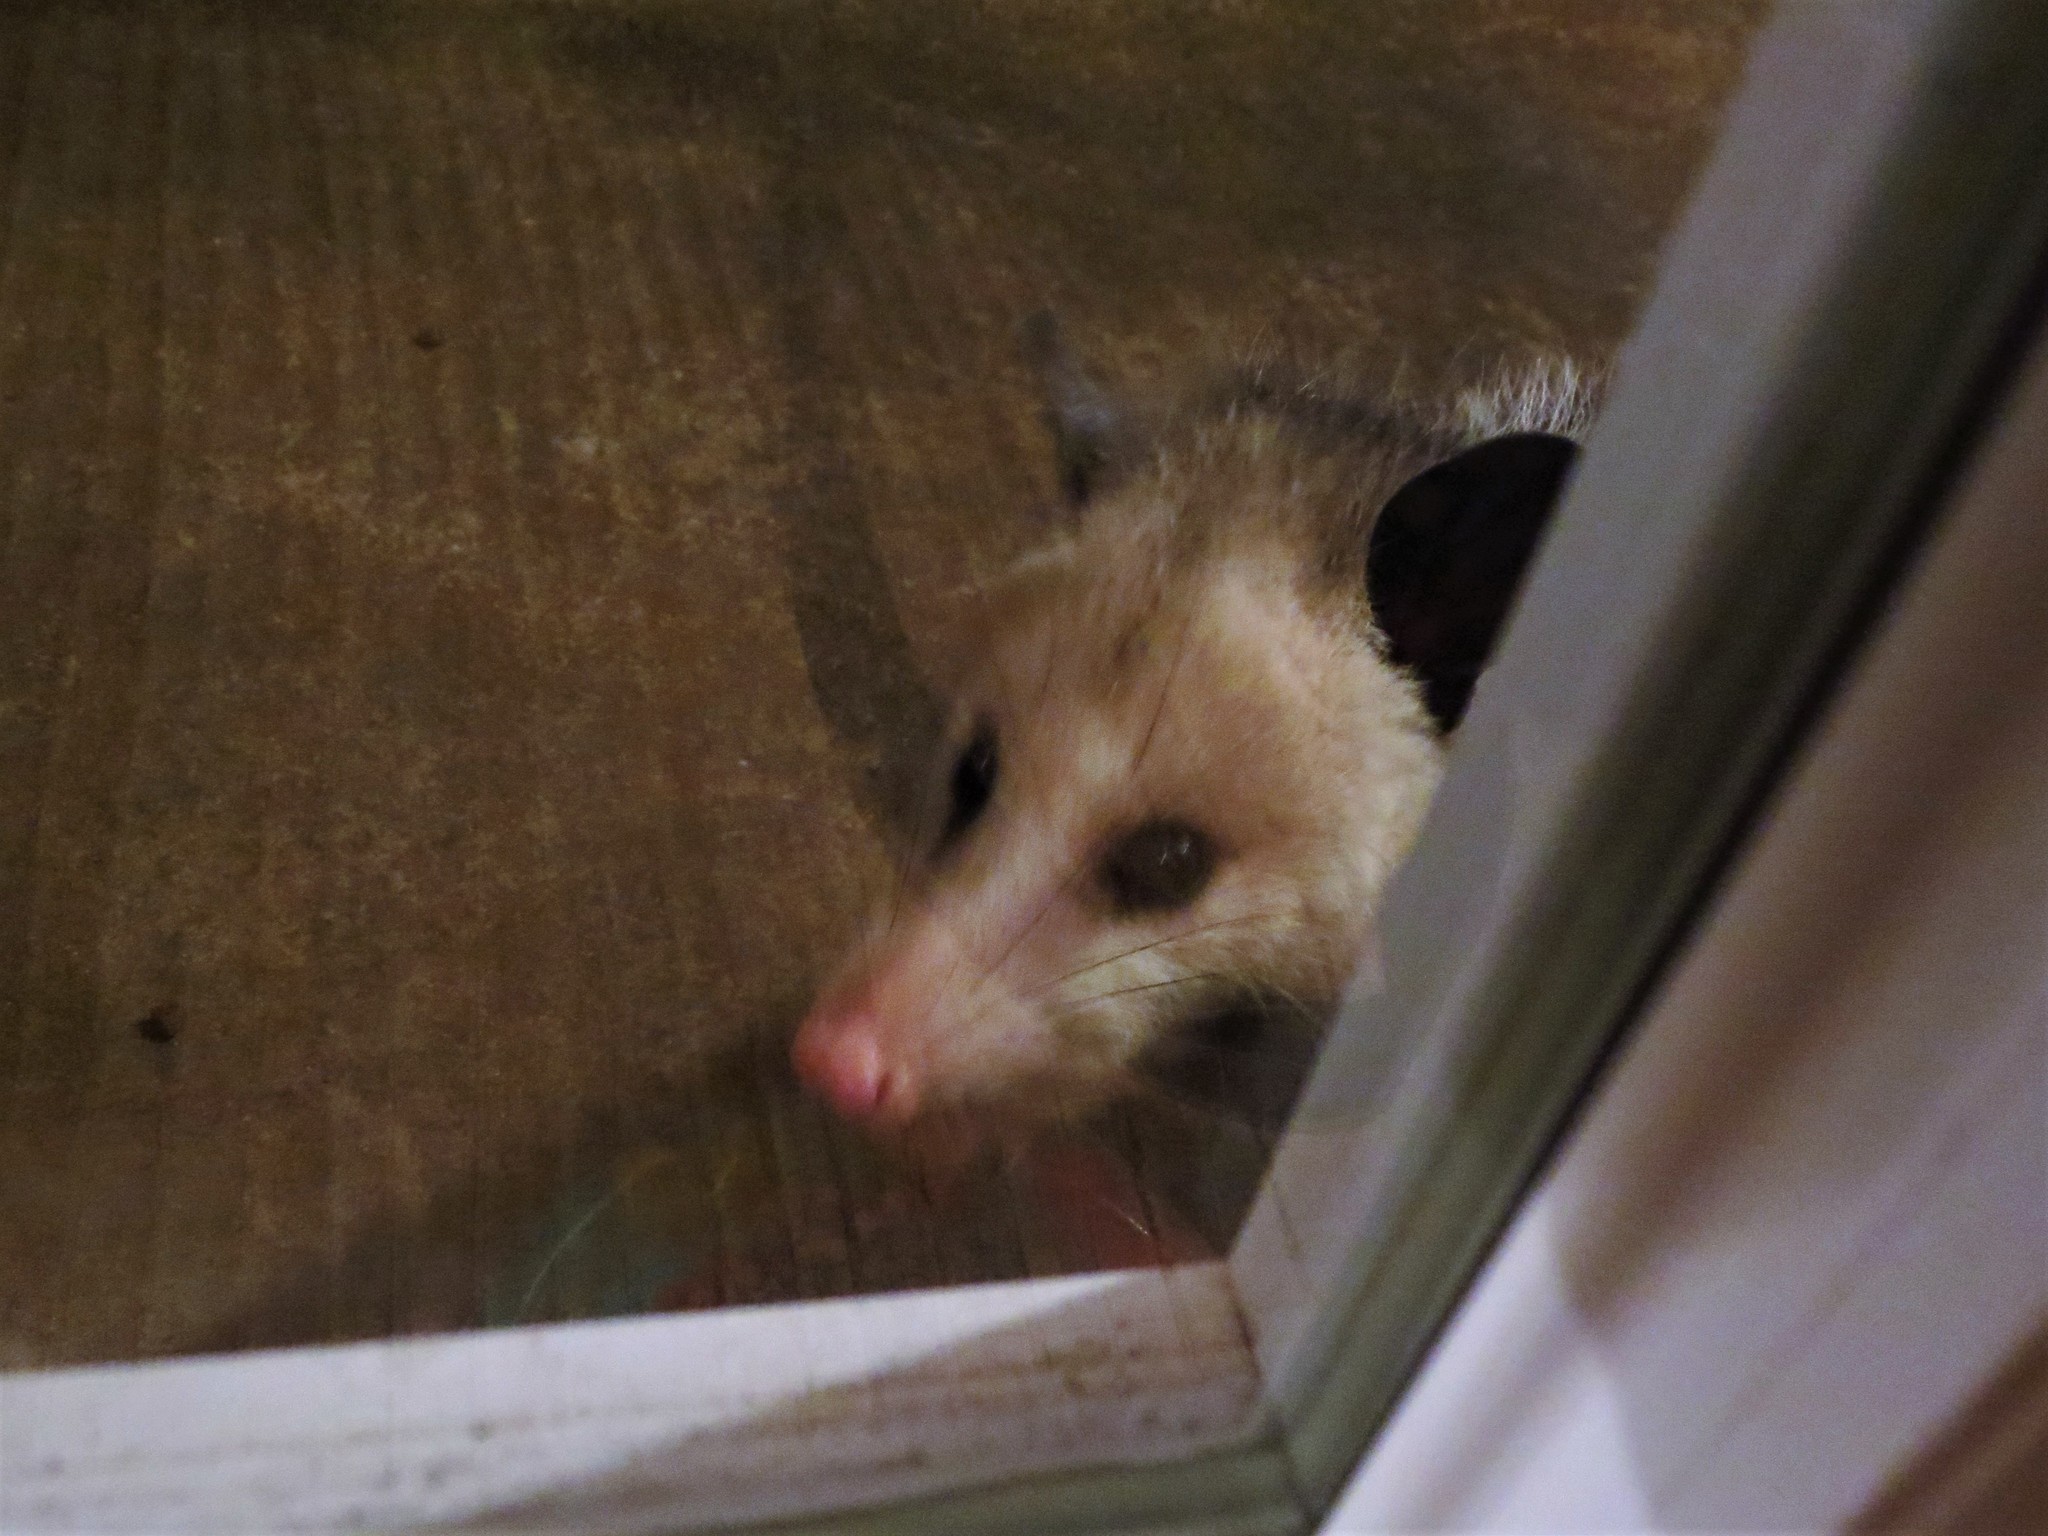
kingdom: Animalia
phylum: Chordata
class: Mammalia
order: Didelphimorphia
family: Didelphidae
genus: Didelphis
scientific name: Didelphis virginiana
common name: Virginia opossum
